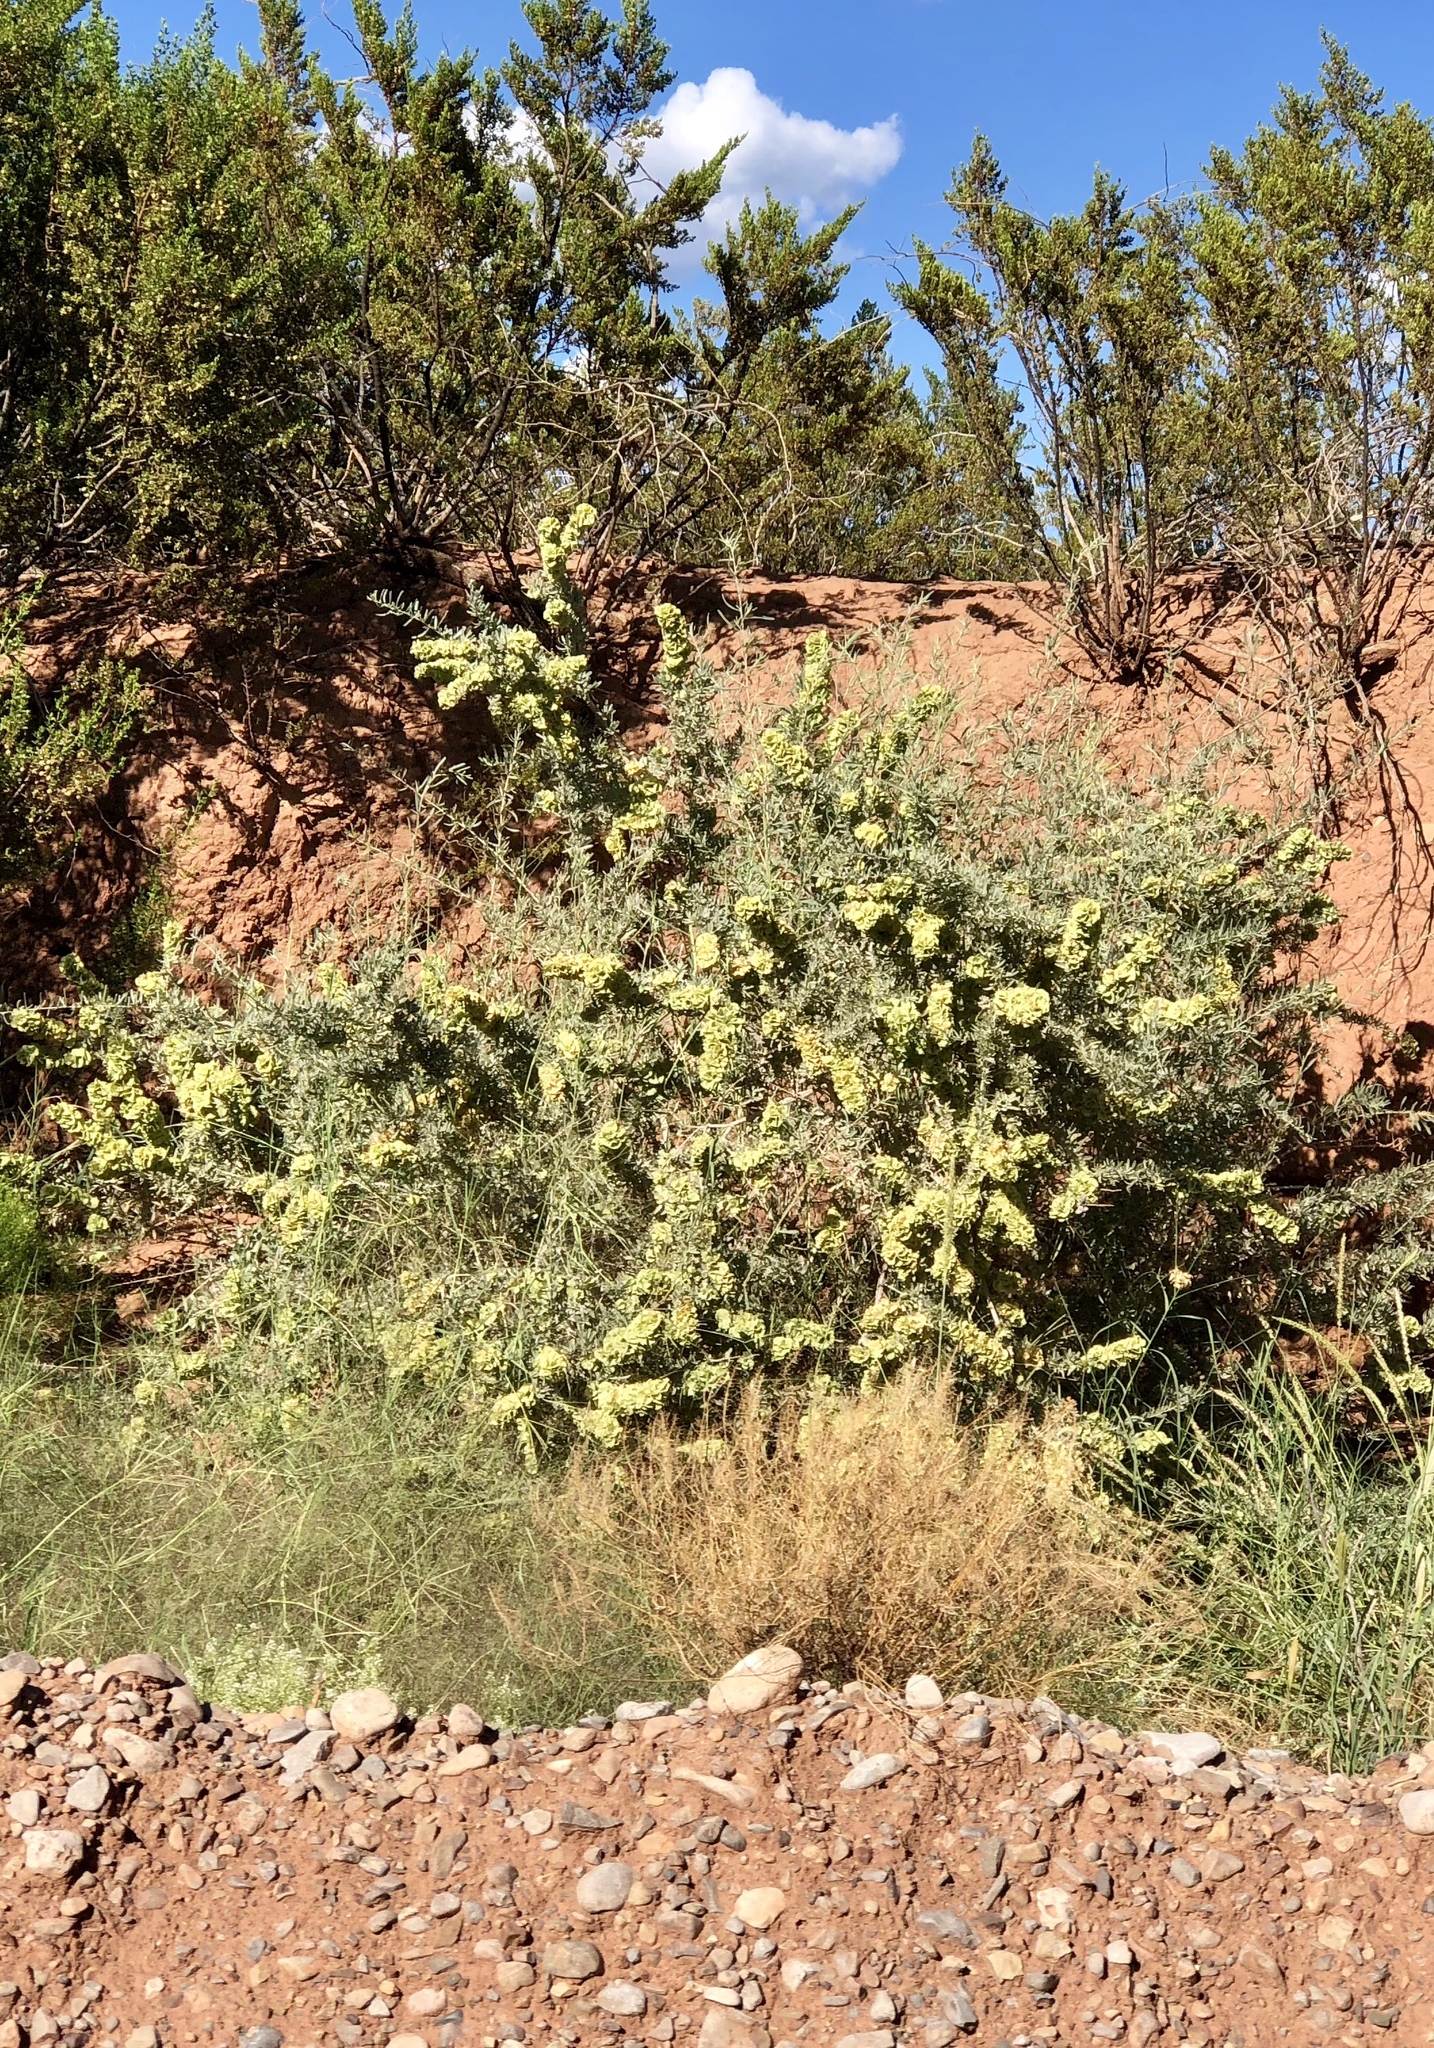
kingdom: Plantae
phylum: Tracheophyta
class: Magnoliopsida
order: Caryophyllales
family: Amaranthaceae
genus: Atriplex
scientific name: Atriplex canescens
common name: Four-wing saltbush
